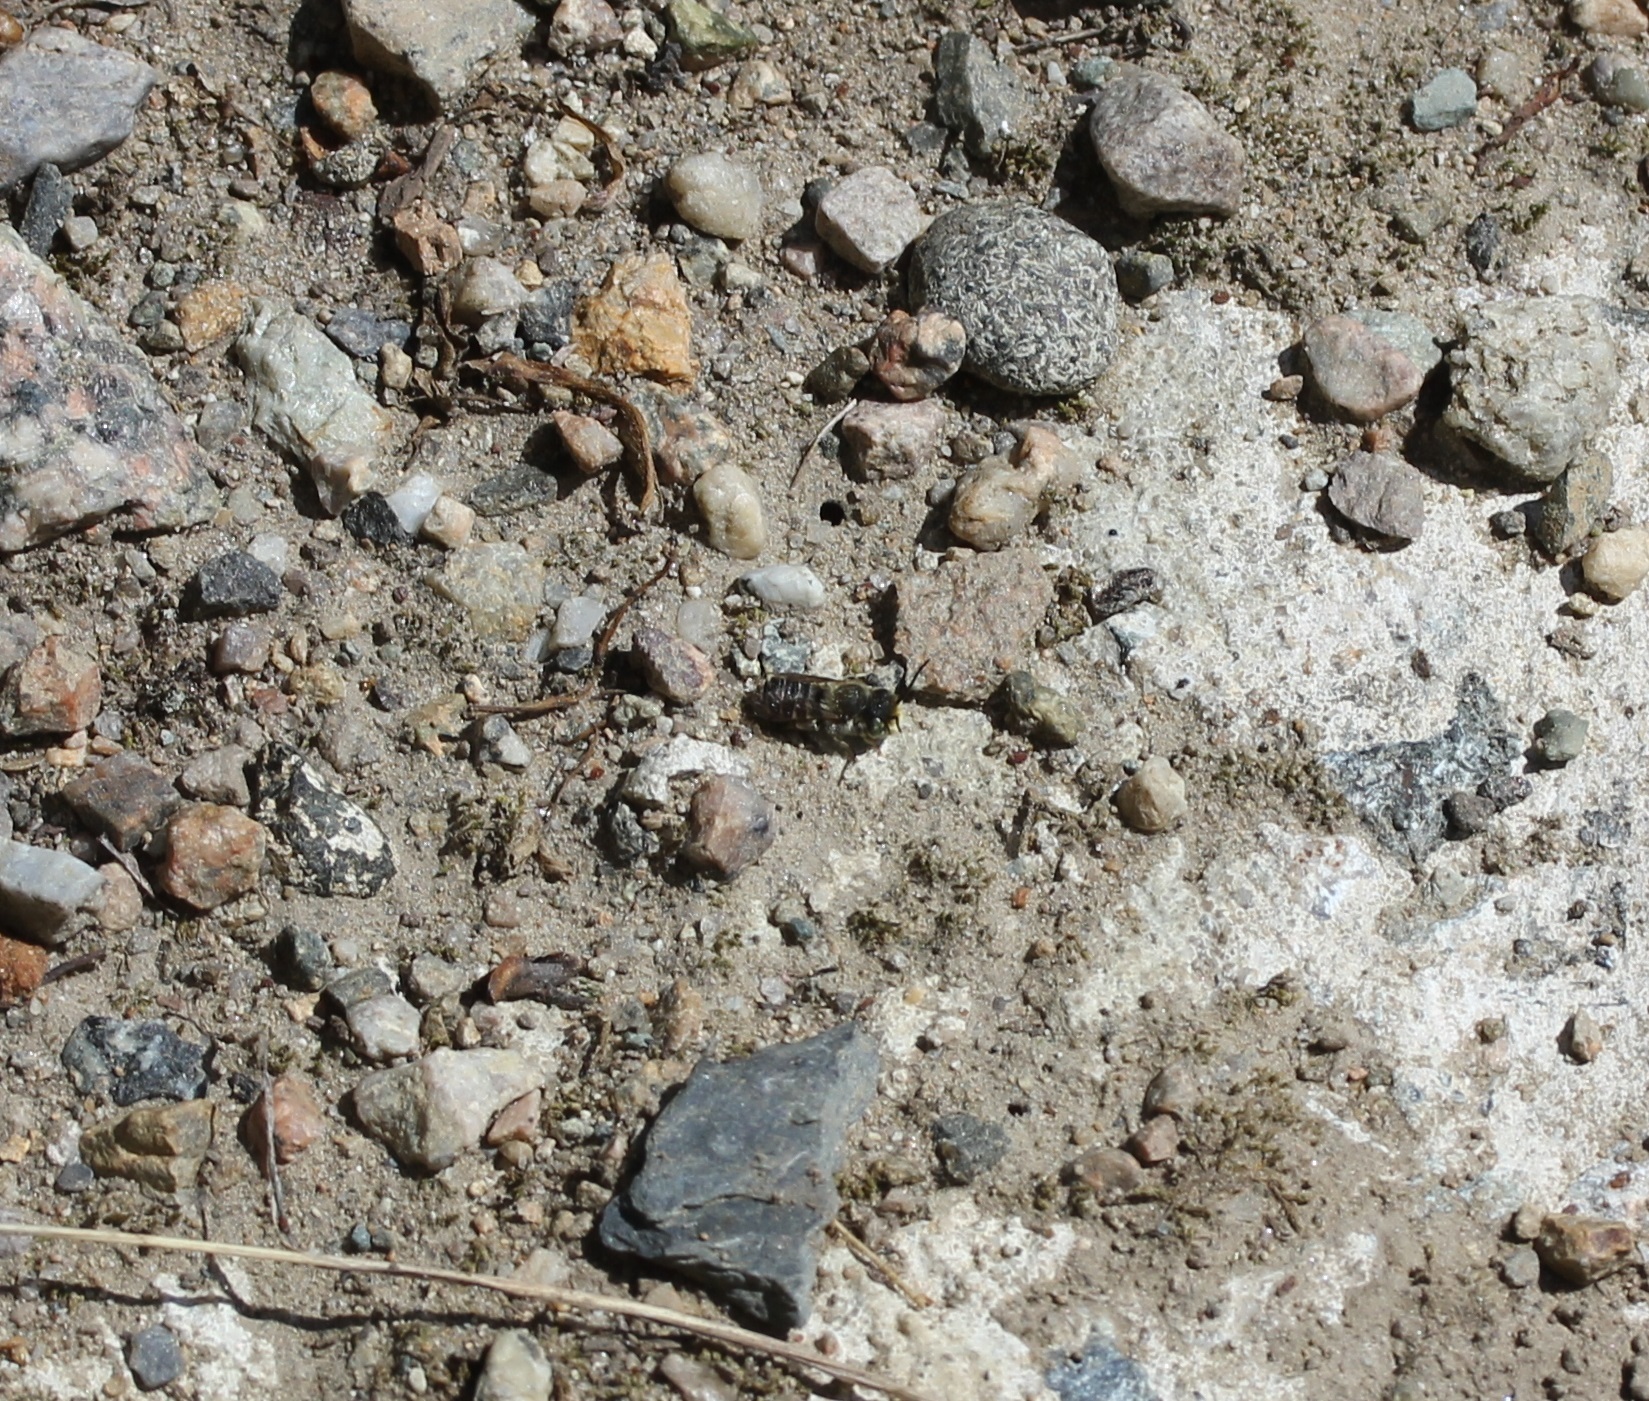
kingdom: Animalia
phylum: Arthropoda
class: Insecta
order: Hymenoptera
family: Megachilidae
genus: Megachile
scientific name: Megachile rotundata
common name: Alfalfa leafcutting bee
